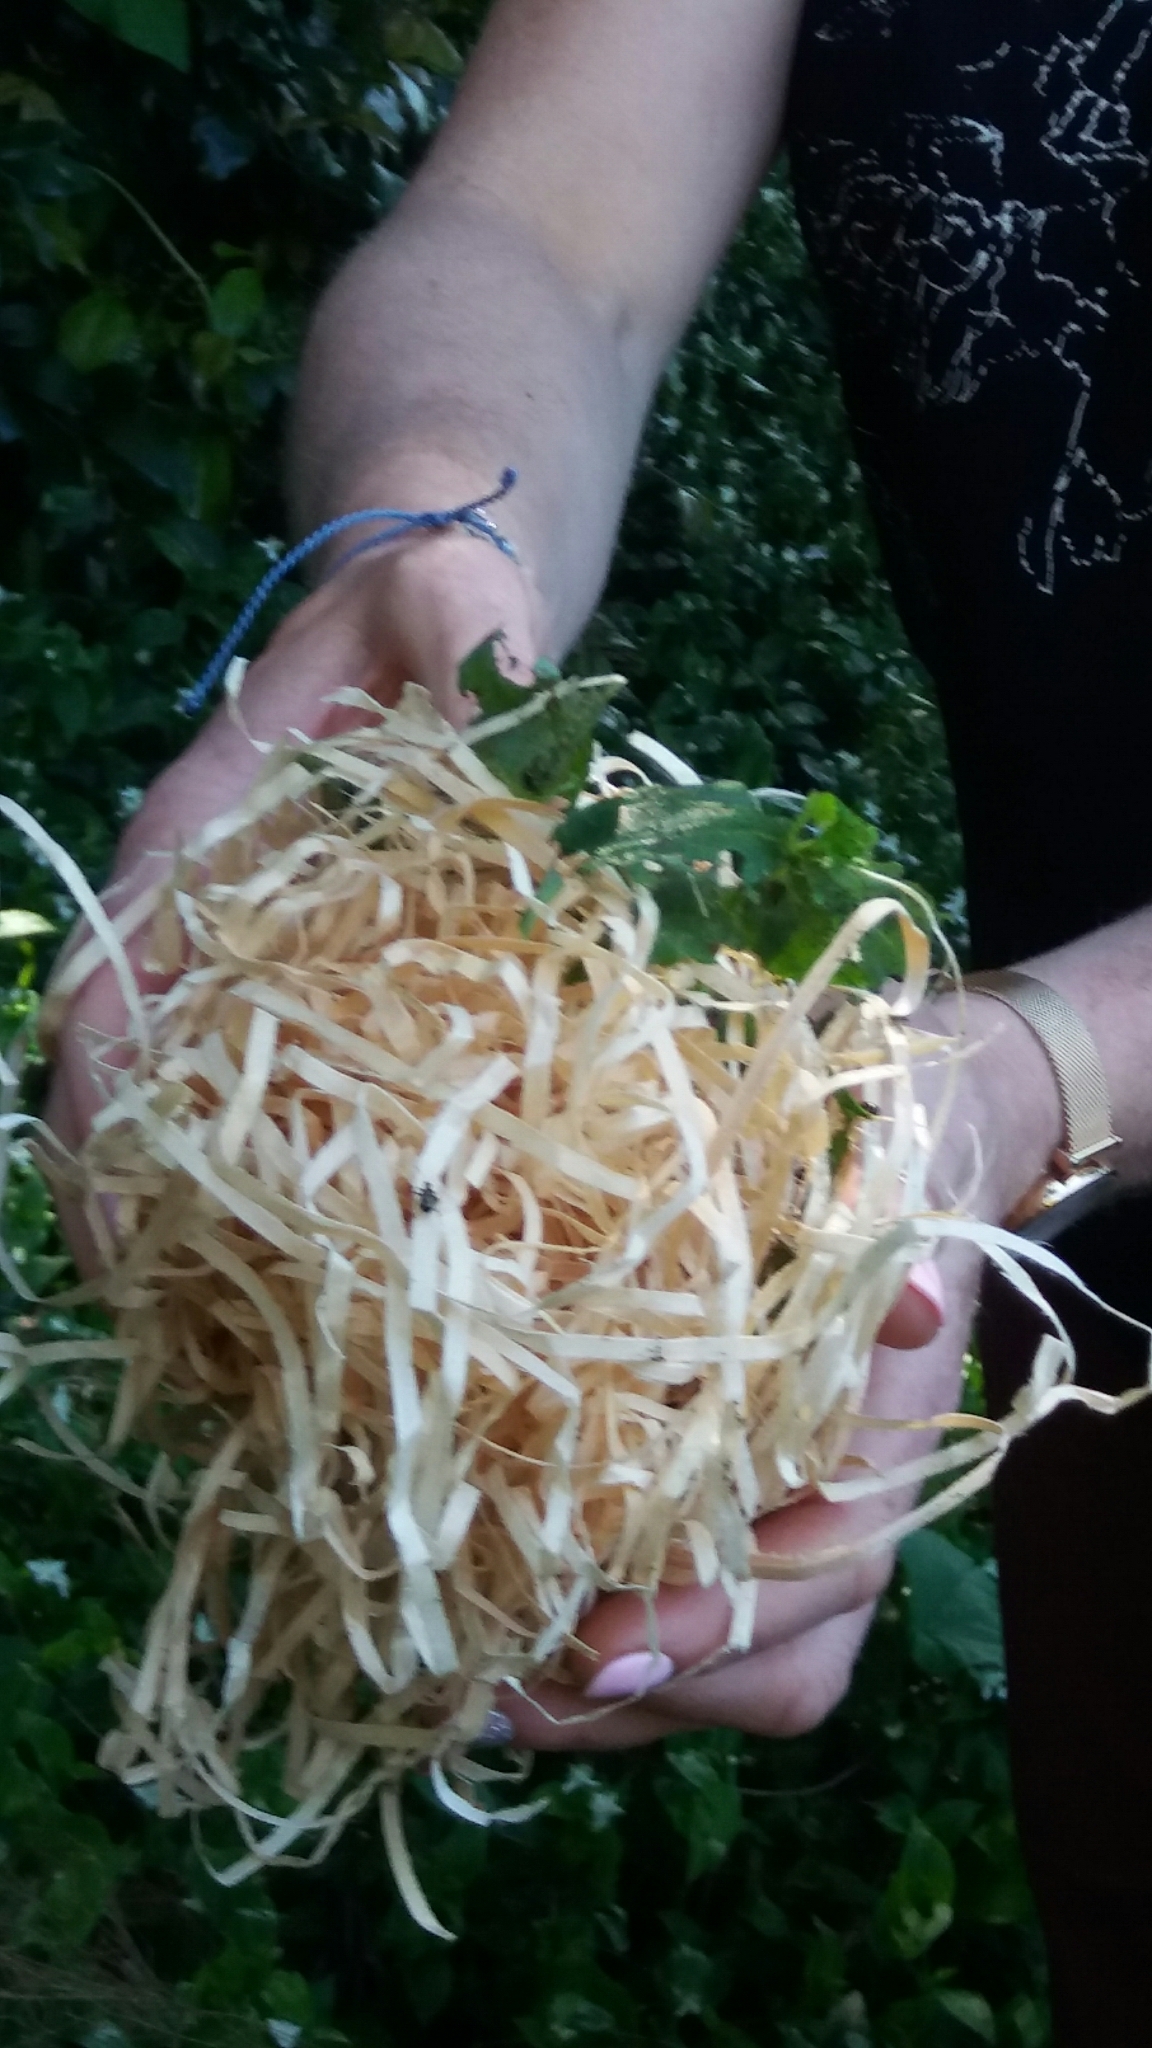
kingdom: Plantae
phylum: Tracheophyta
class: Liliopsida
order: Commelinales
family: Commelinaceae
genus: Tradescantia
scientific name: Tradescantia fluminensis
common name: Wandering-jew
